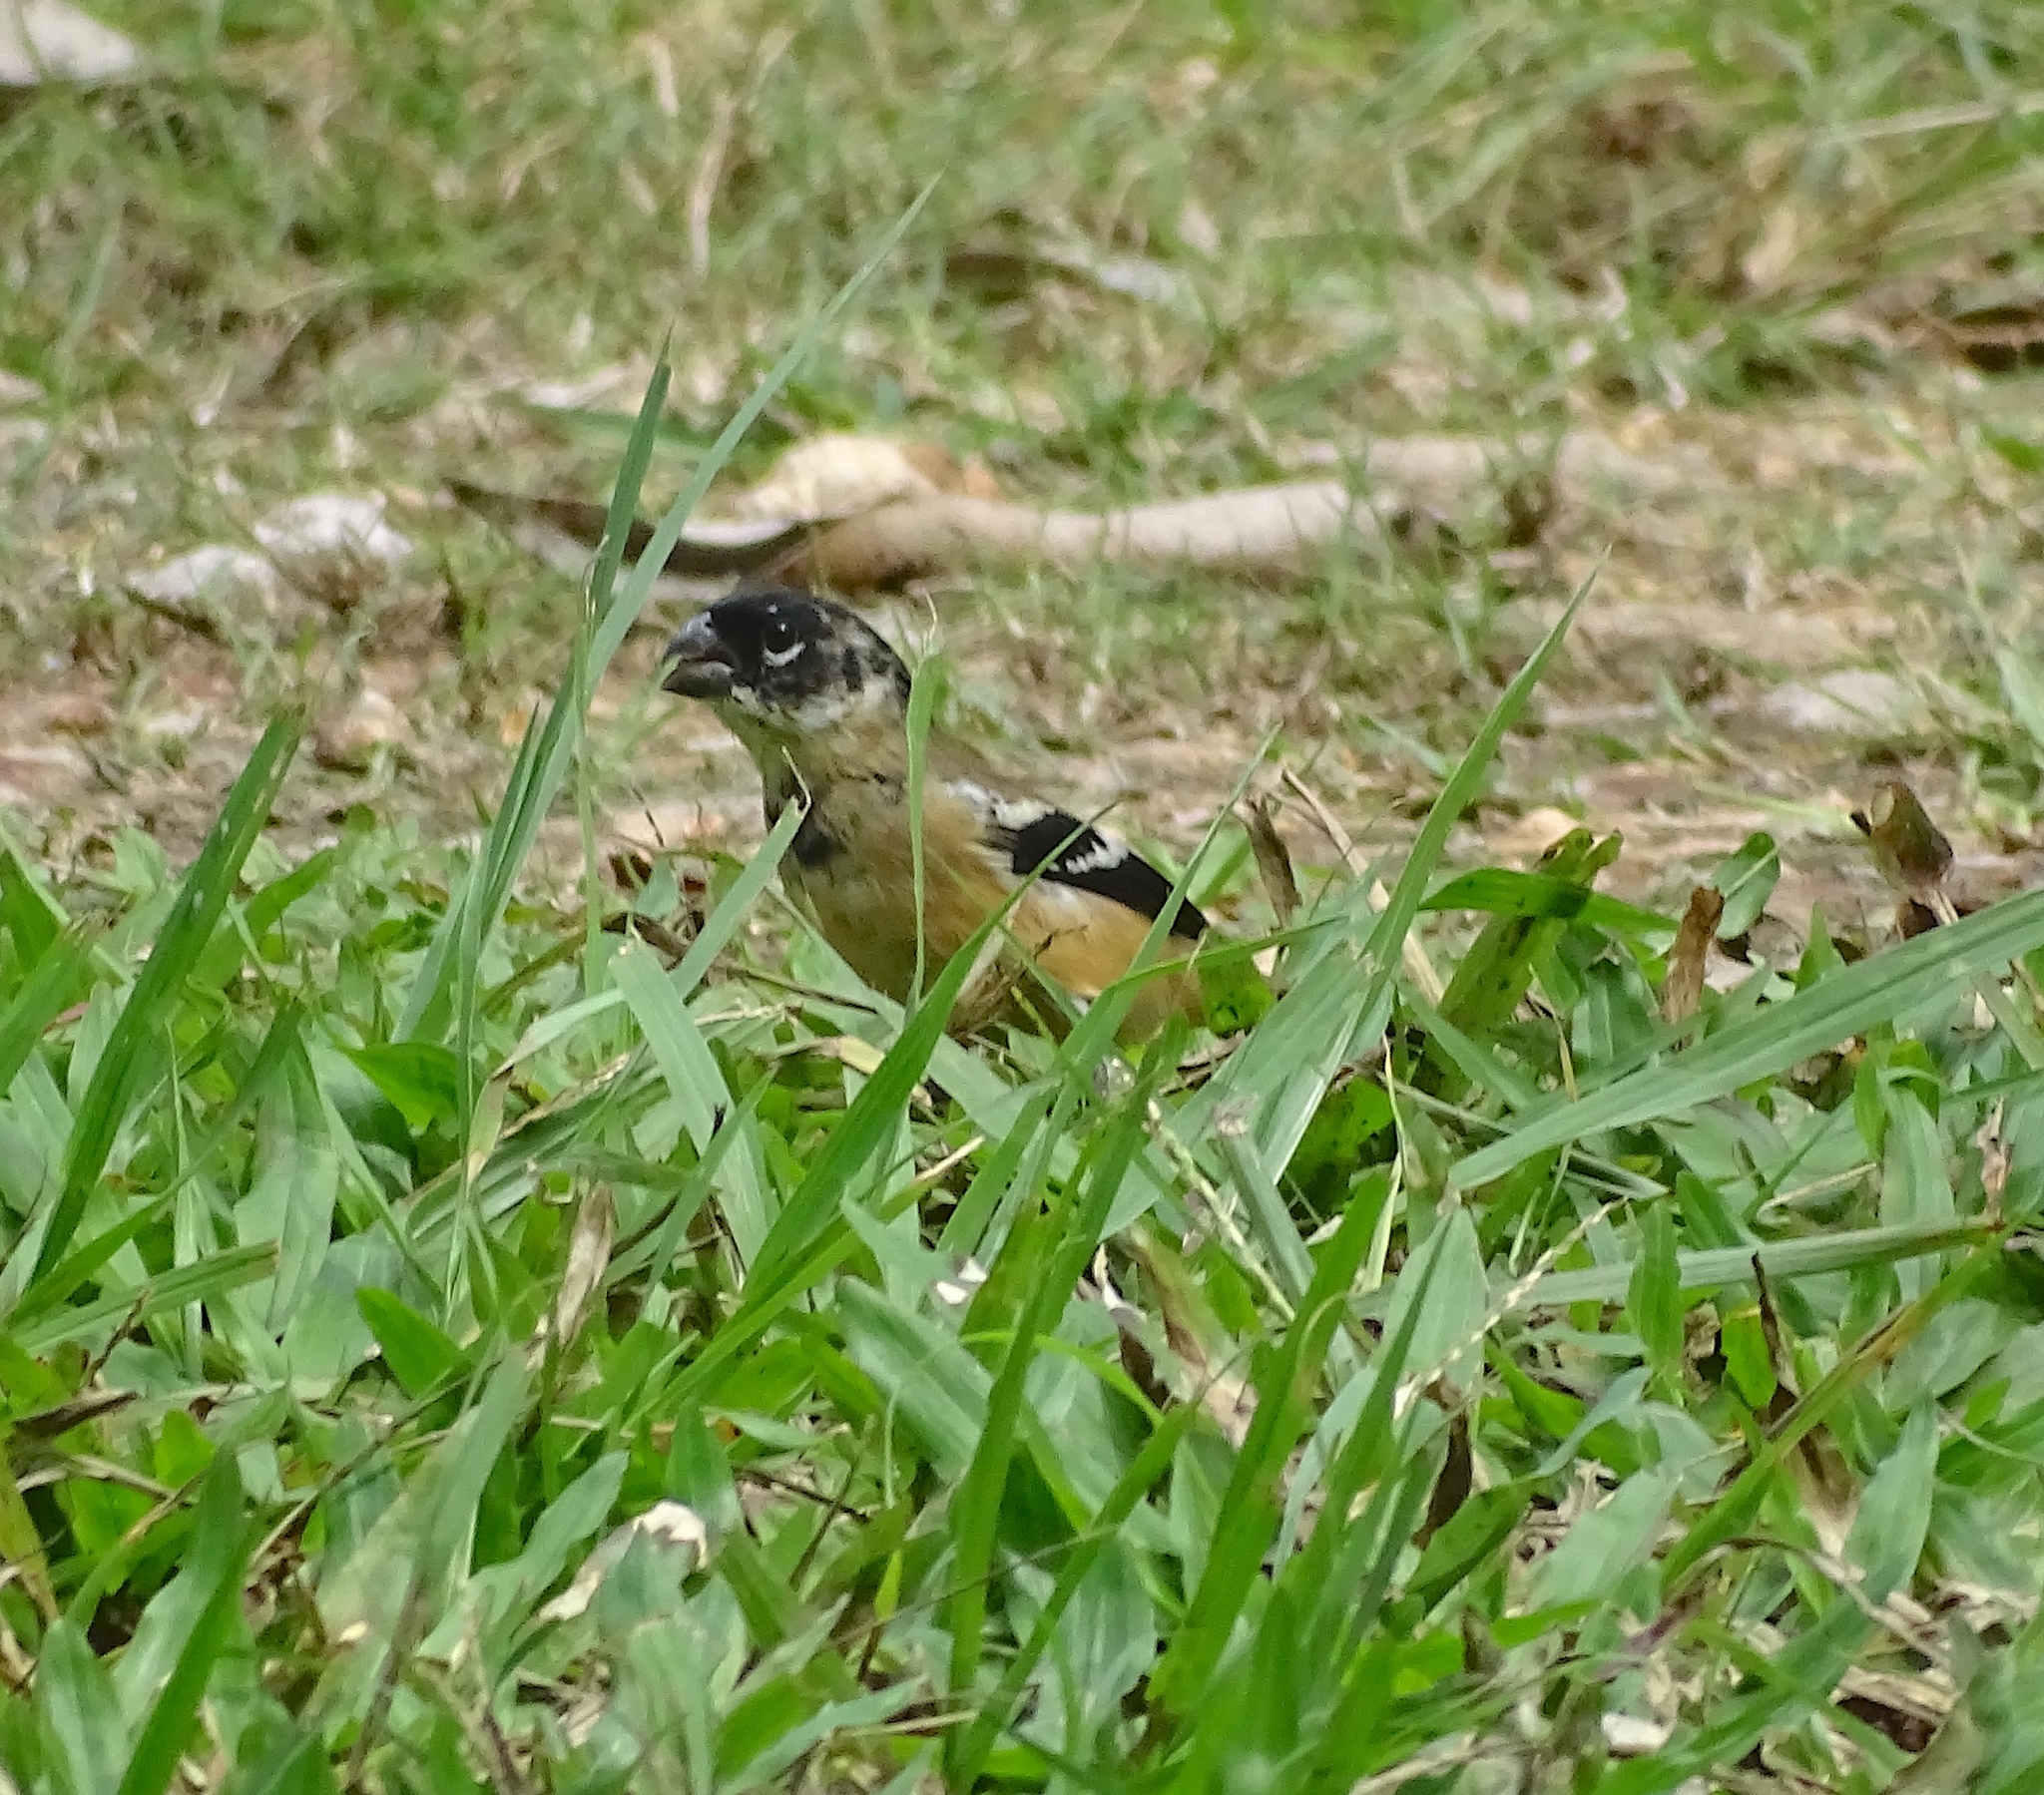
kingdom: Animalia
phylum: Chordata
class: Aves
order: Passeriformes
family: Thraupidae
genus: Sporophila
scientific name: Sporophila morelleti
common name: Morelet's seedeater
